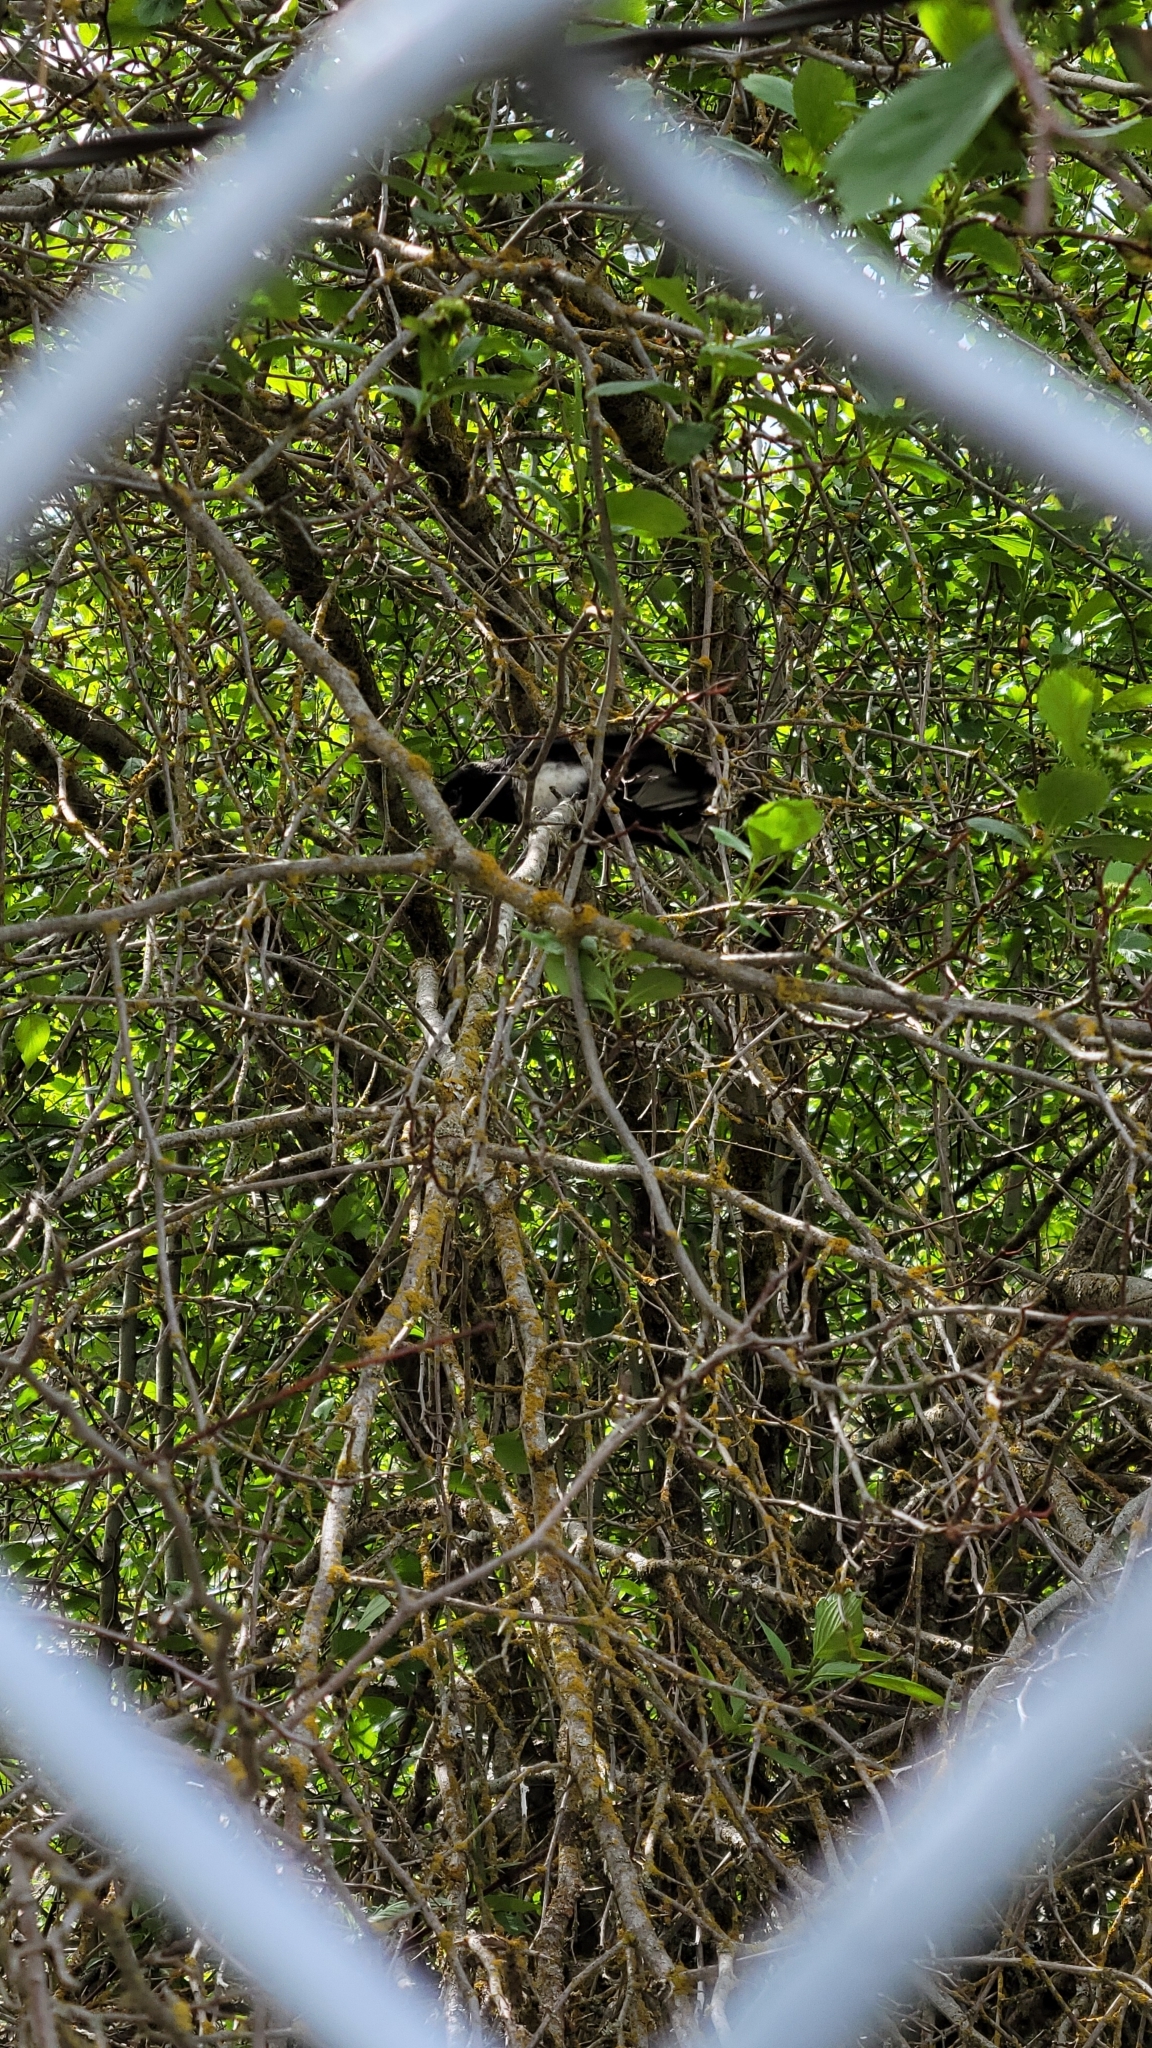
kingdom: Animalia
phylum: Chordata
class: Aves
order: Passeriformes
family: Corvidae
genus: Pica
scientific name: Pica hudsonia
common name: Black-billed magpie
